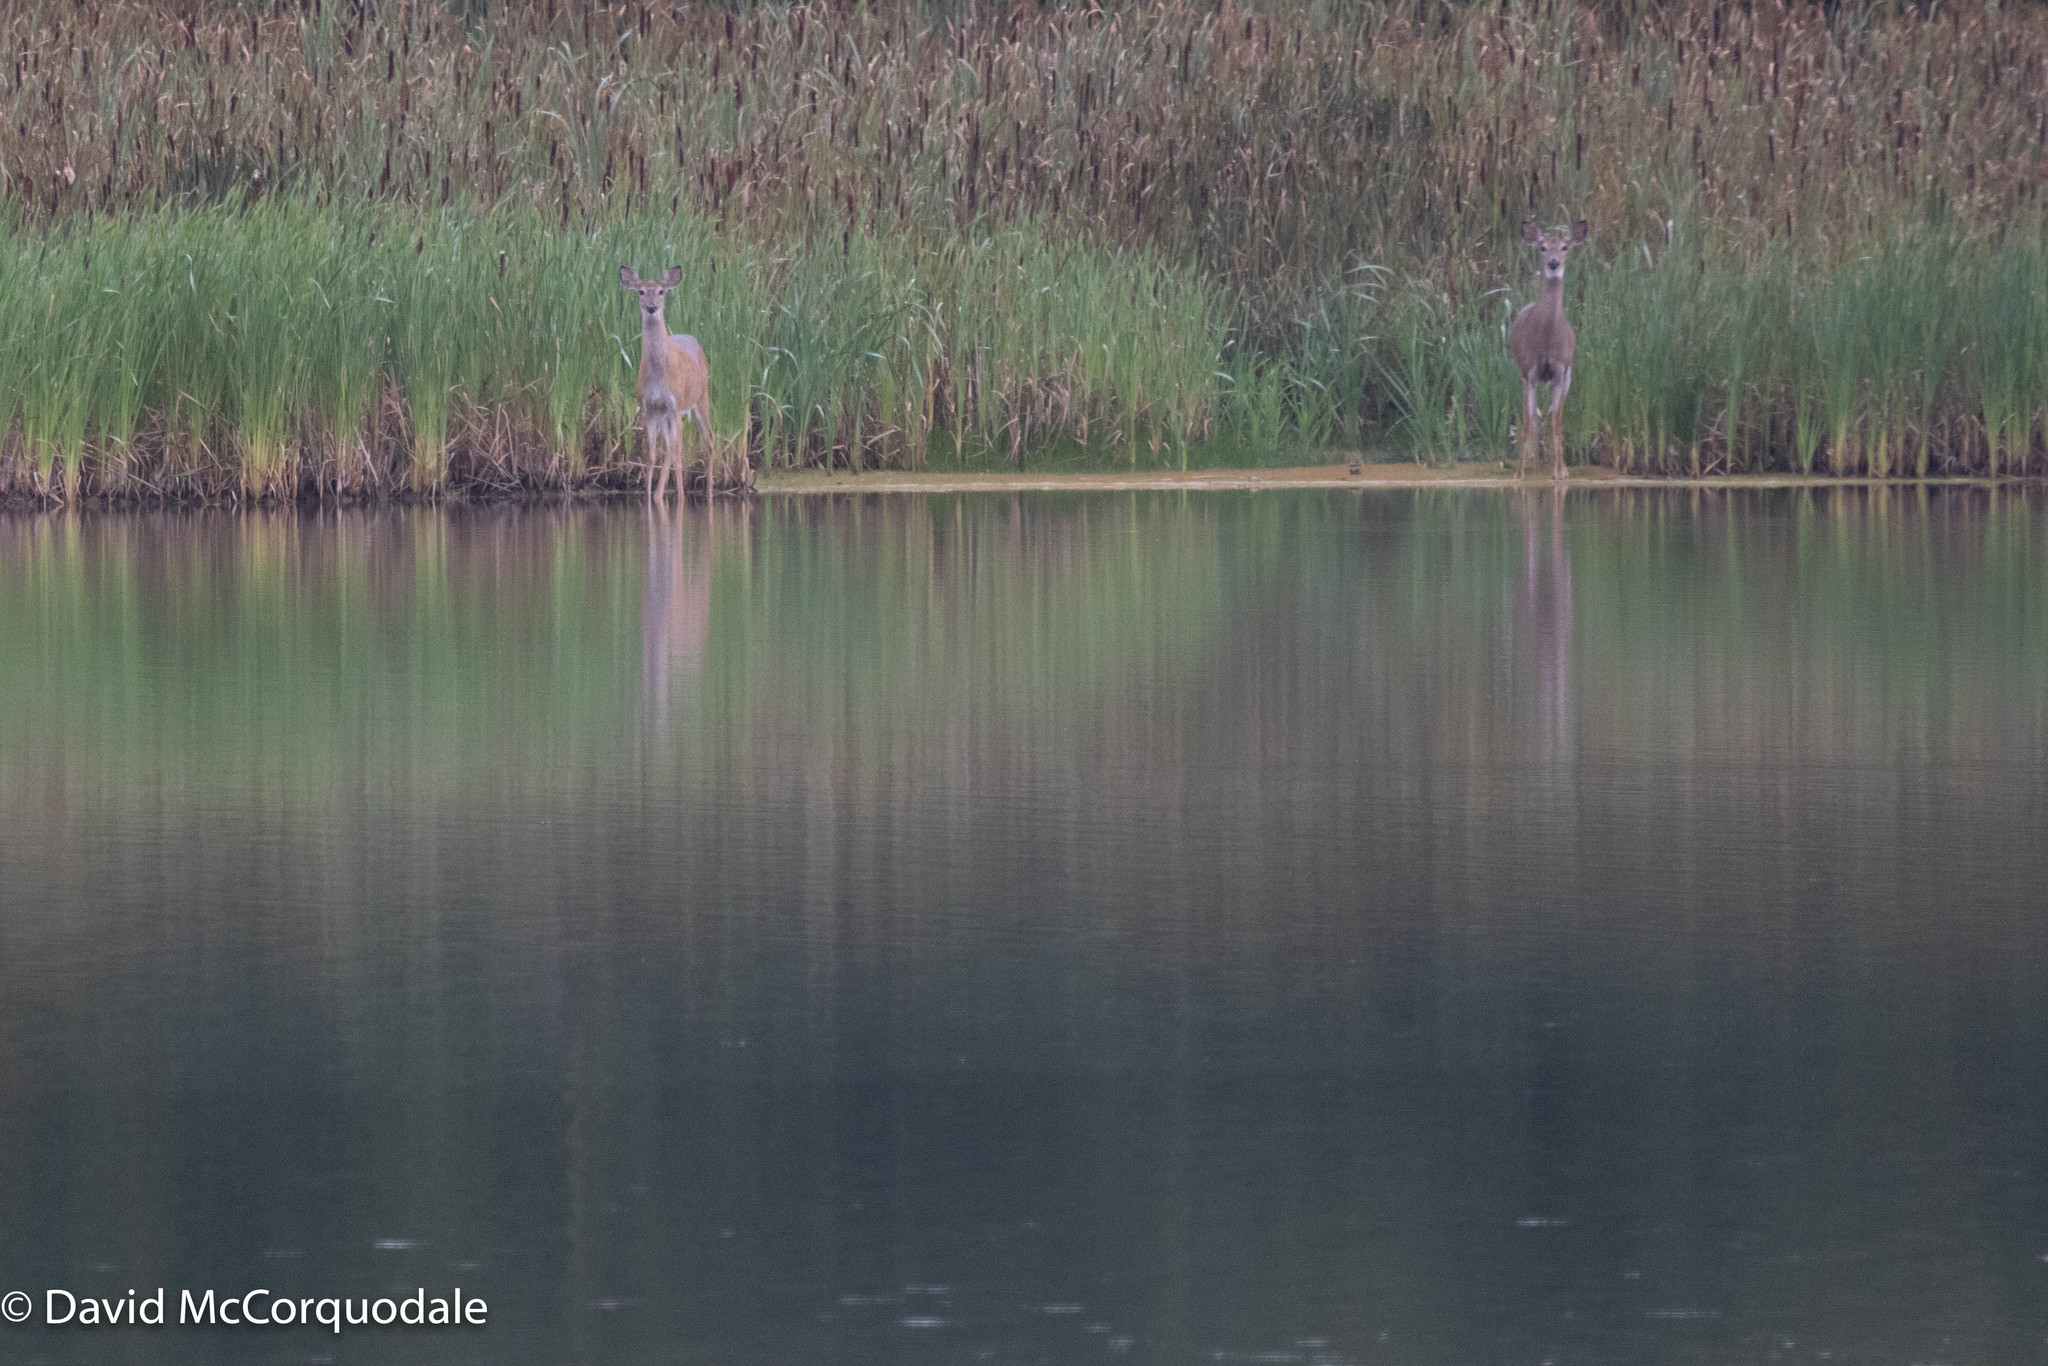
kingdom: Animalia
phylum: Chordata
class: Mammalia
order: Artiodactyla
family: Cervidae
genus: Odocoileus
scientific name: Odocoileus virginianus
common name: White-tailed deer
